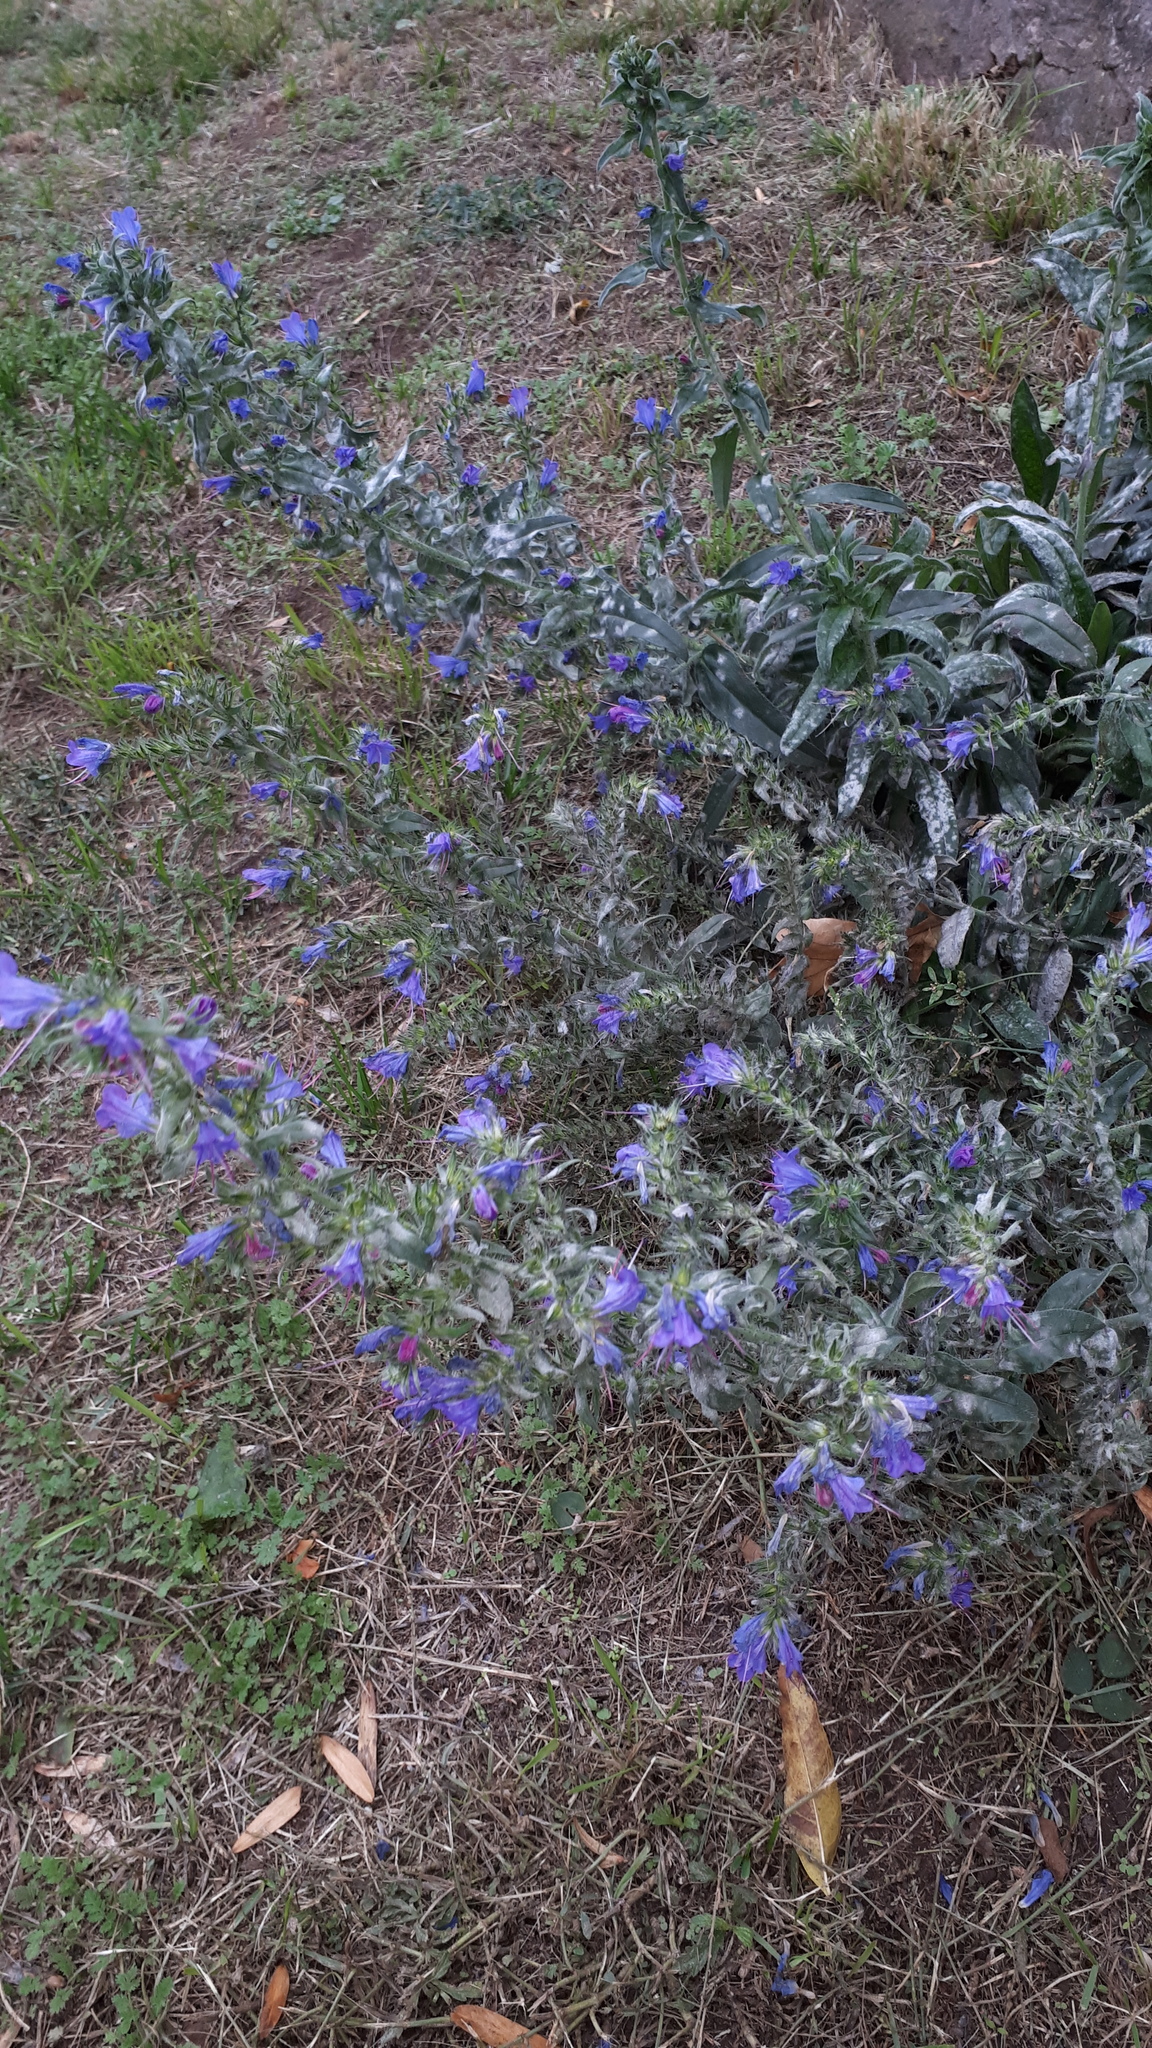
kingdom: Plantae
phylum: Tracheophyta
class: Magnoliopsida
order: Boraginales
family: Boraginaceae
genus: Echium
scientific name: Echium vulgare
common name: Common viper's bugloss
